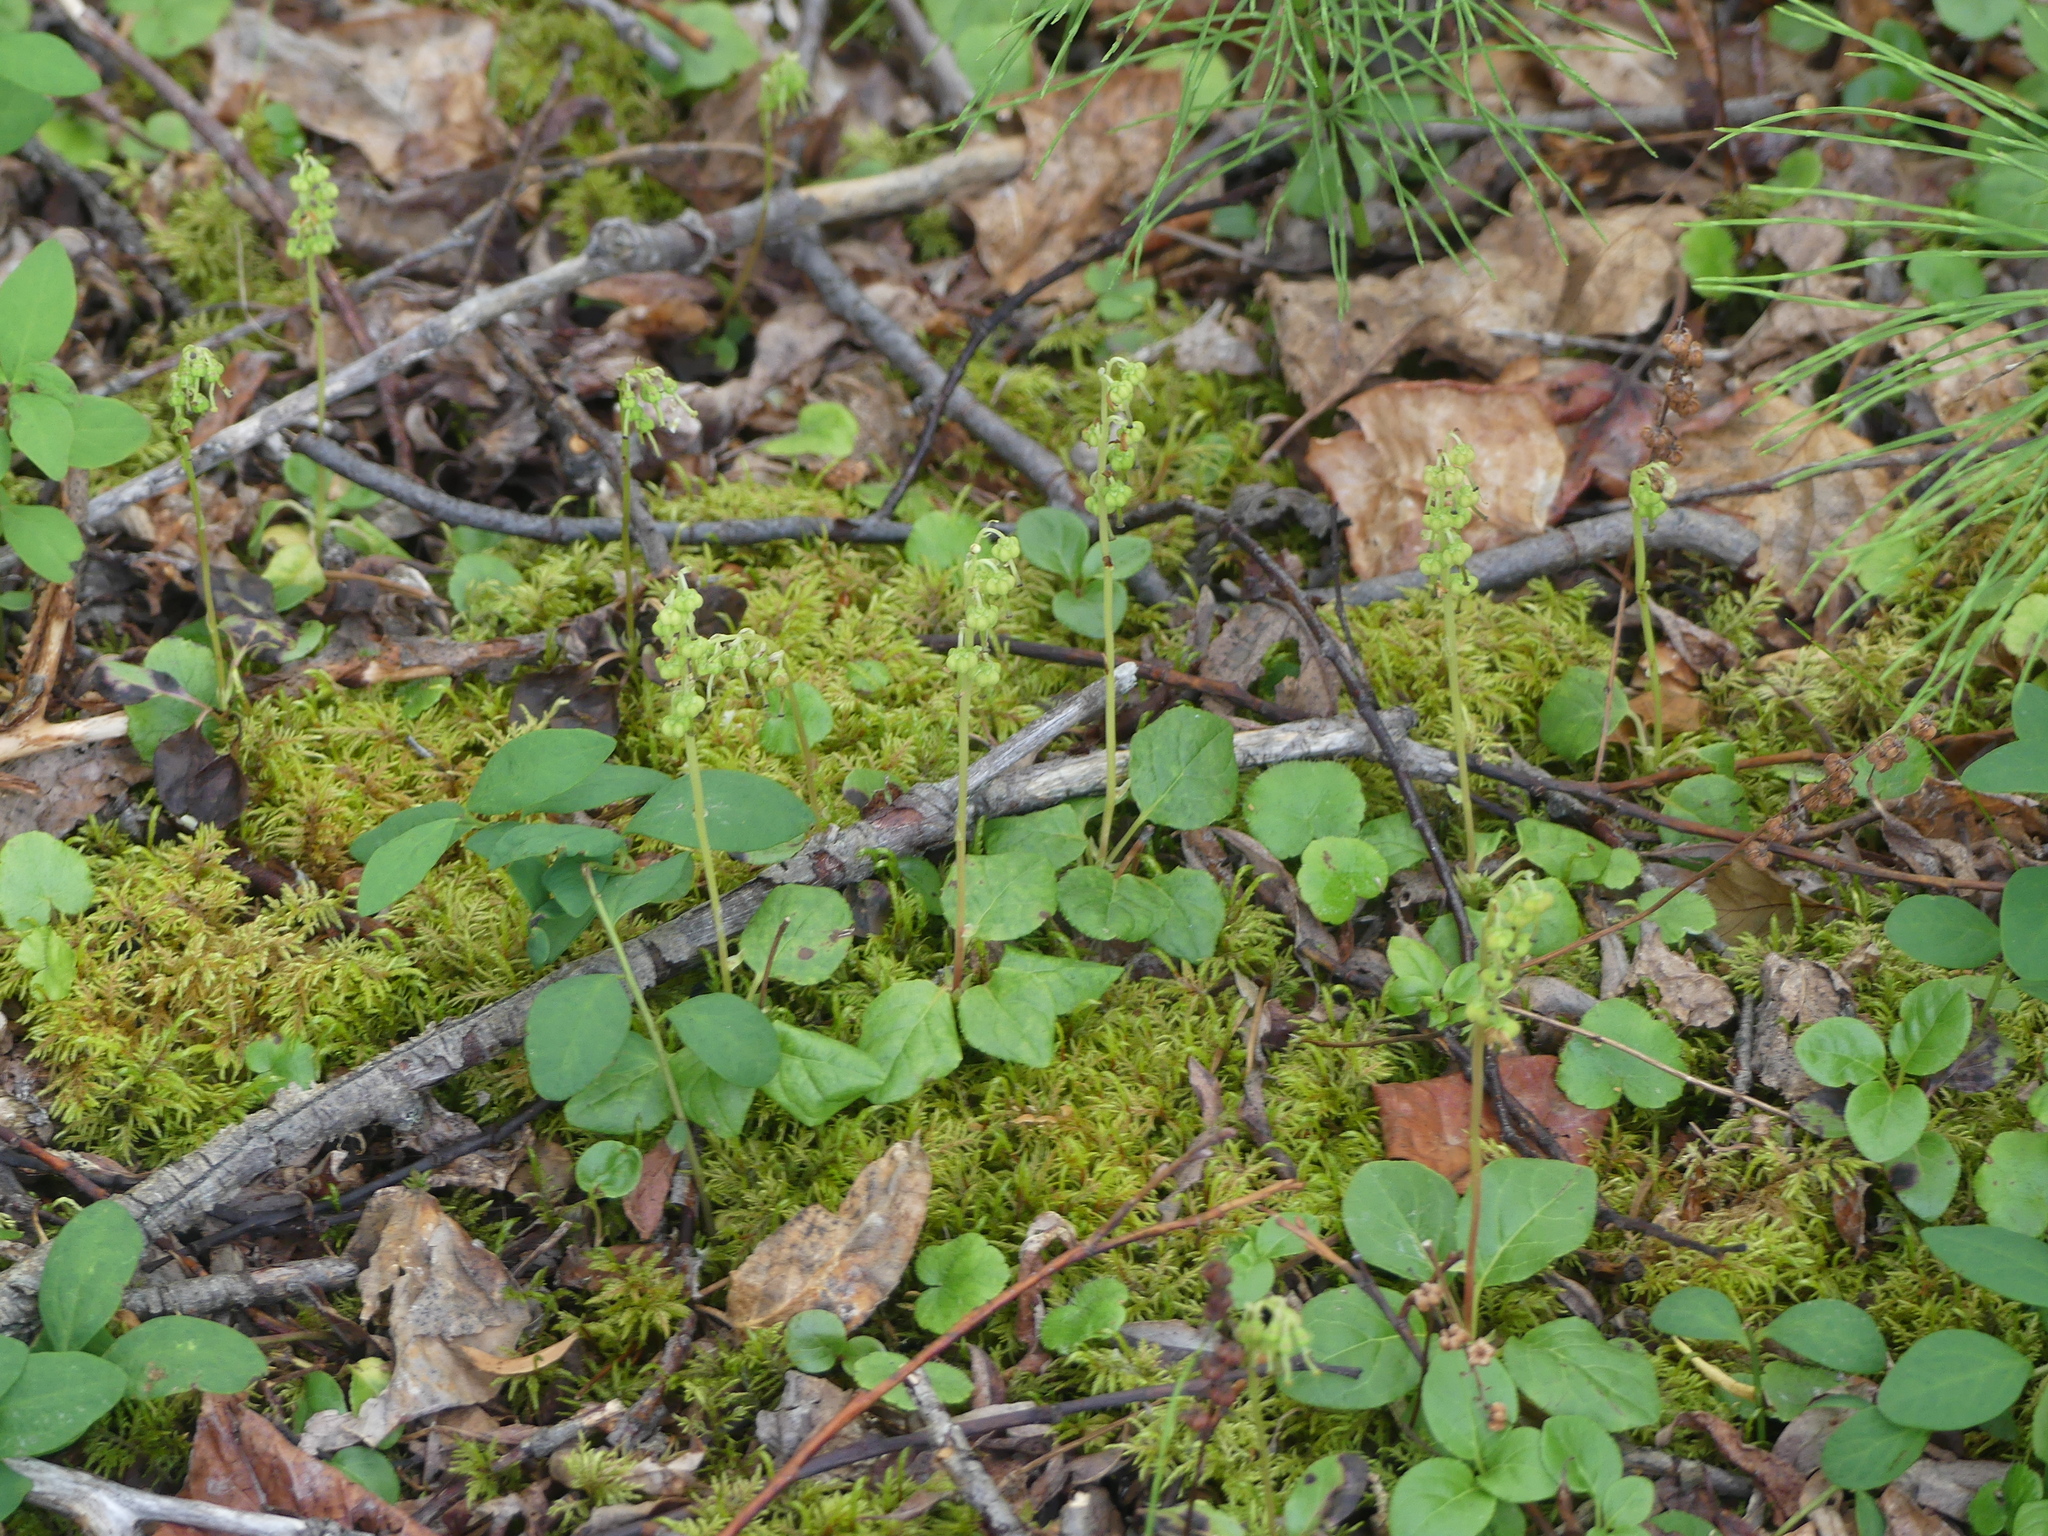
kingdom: Plantae
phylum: Tracheophyta
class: Magnoliopsida
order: Ericales
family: Ericaceae
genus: Orthilia
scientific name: Orthilia secunda
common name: One-sided orthilia
